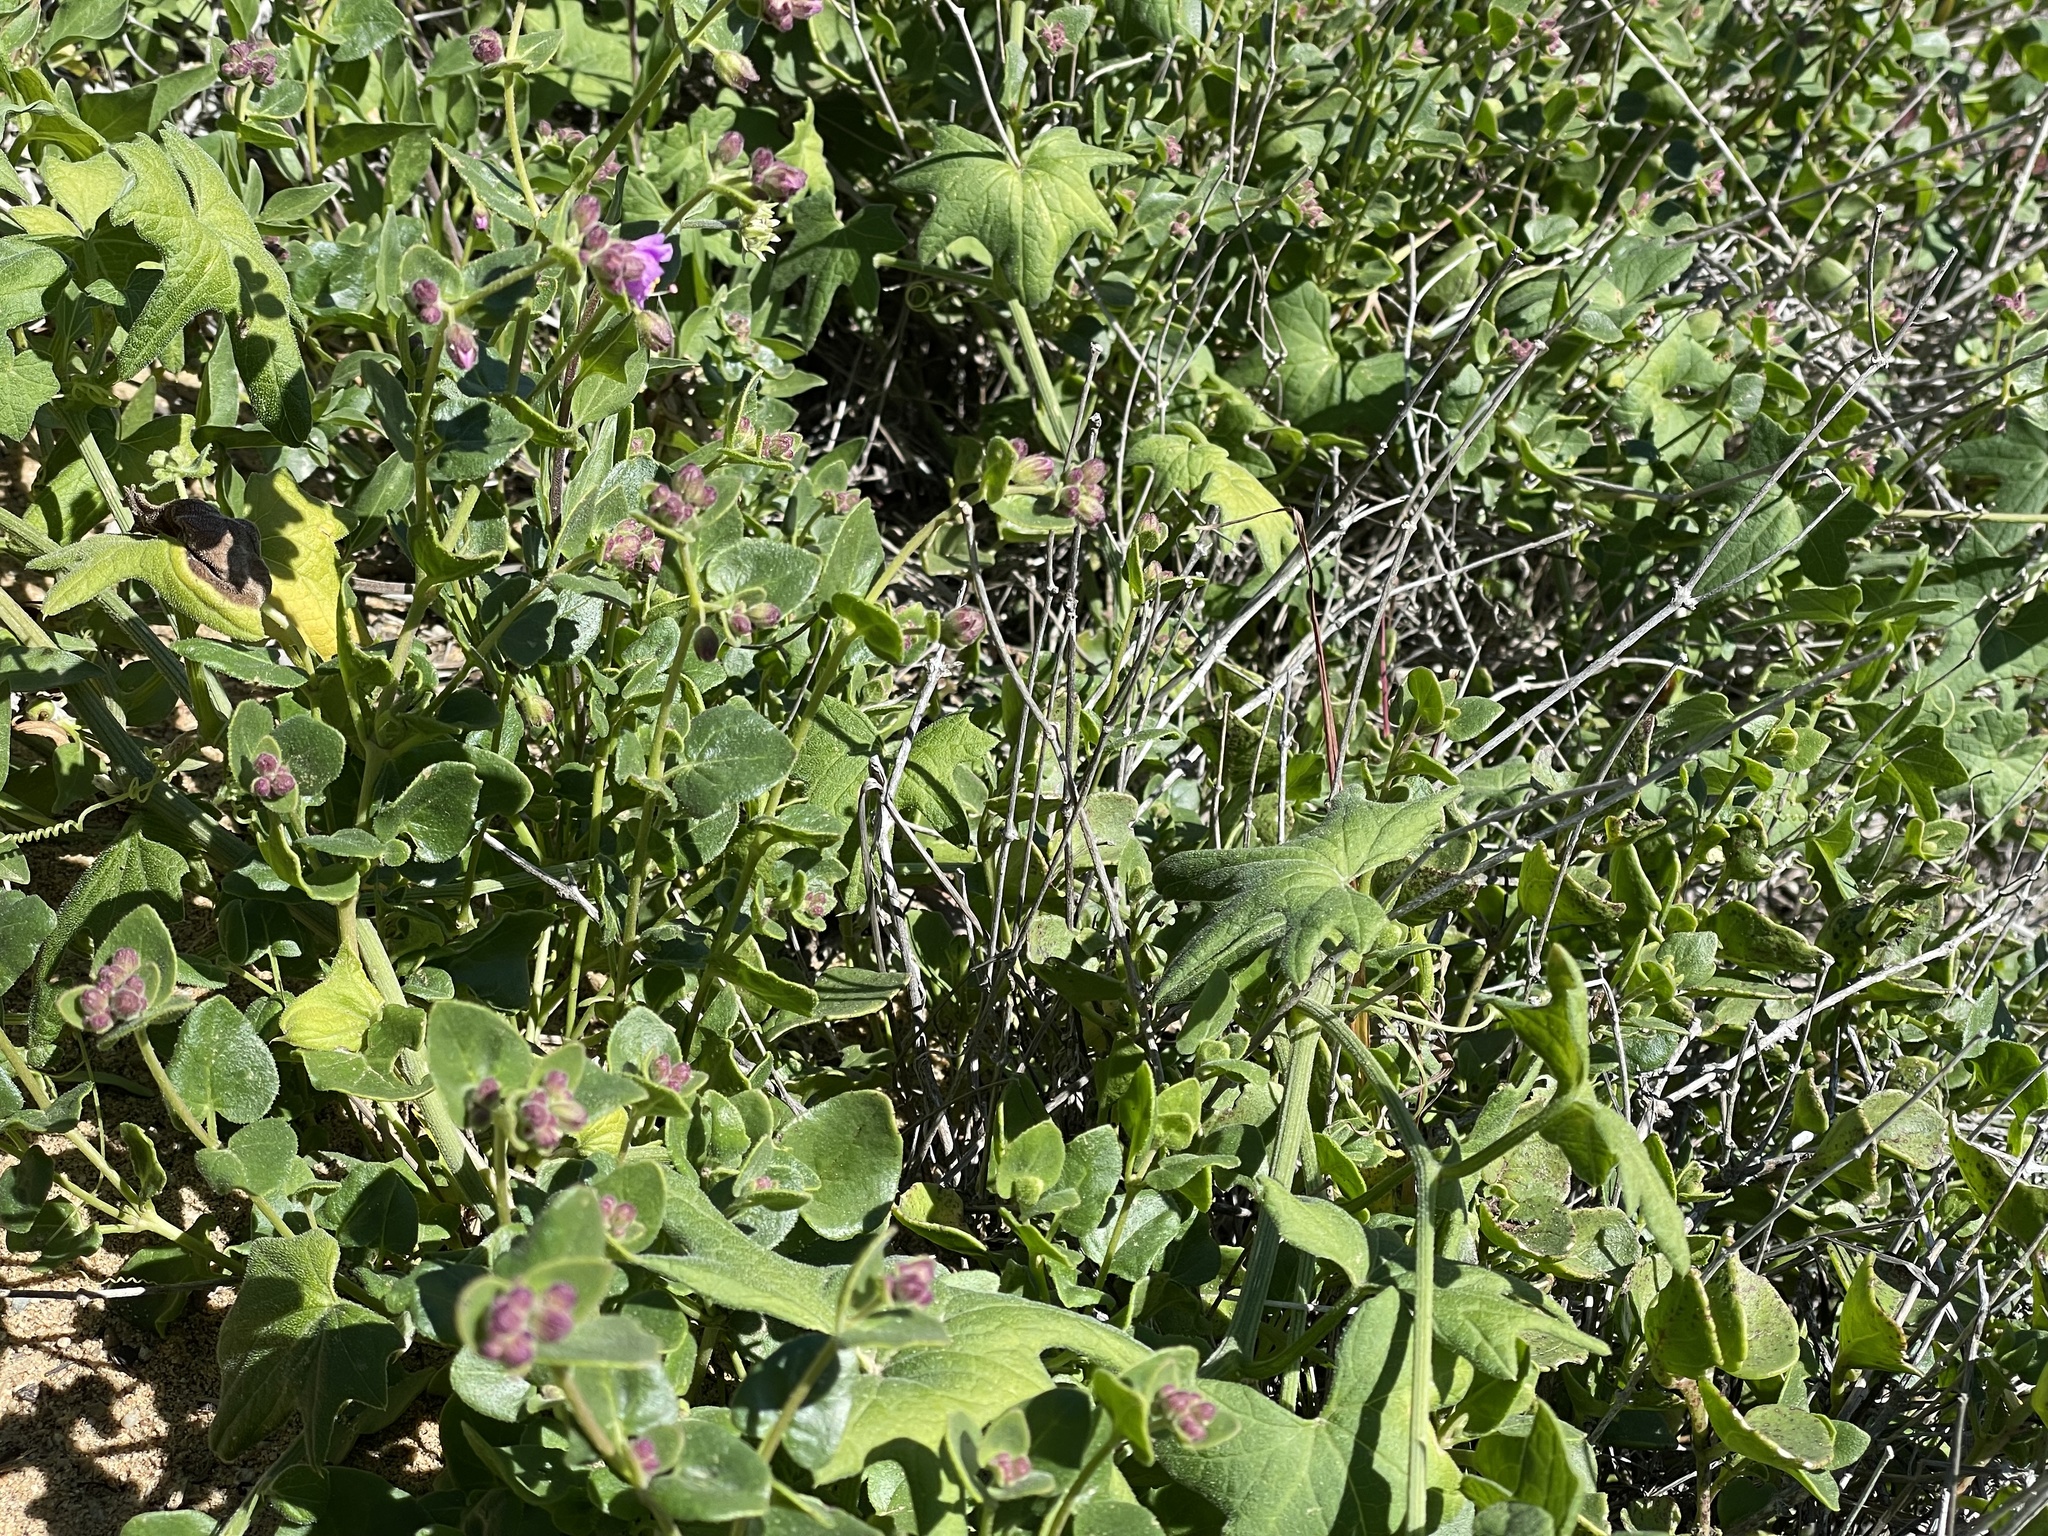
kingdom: Plantae
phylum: Tracheophyta
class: Magnoliopsida
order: Caryophyllales
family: Nyctaginaceae
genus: Mirabilis
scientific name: Mirabilis laevis
